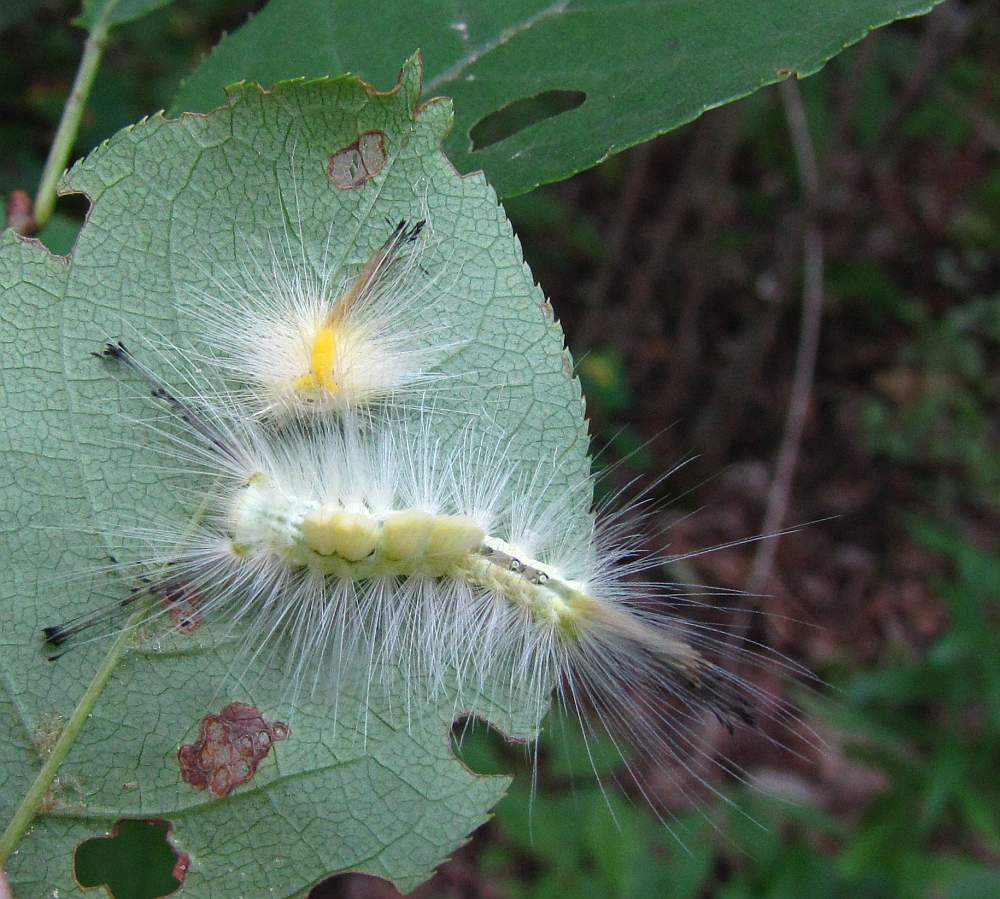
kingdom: Animalia
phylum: Arthropoda
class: Insecta
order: Lepidoptera
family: Erebidae
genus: Orgyia
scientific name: Orgyia definita
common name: Definite tussock moth
